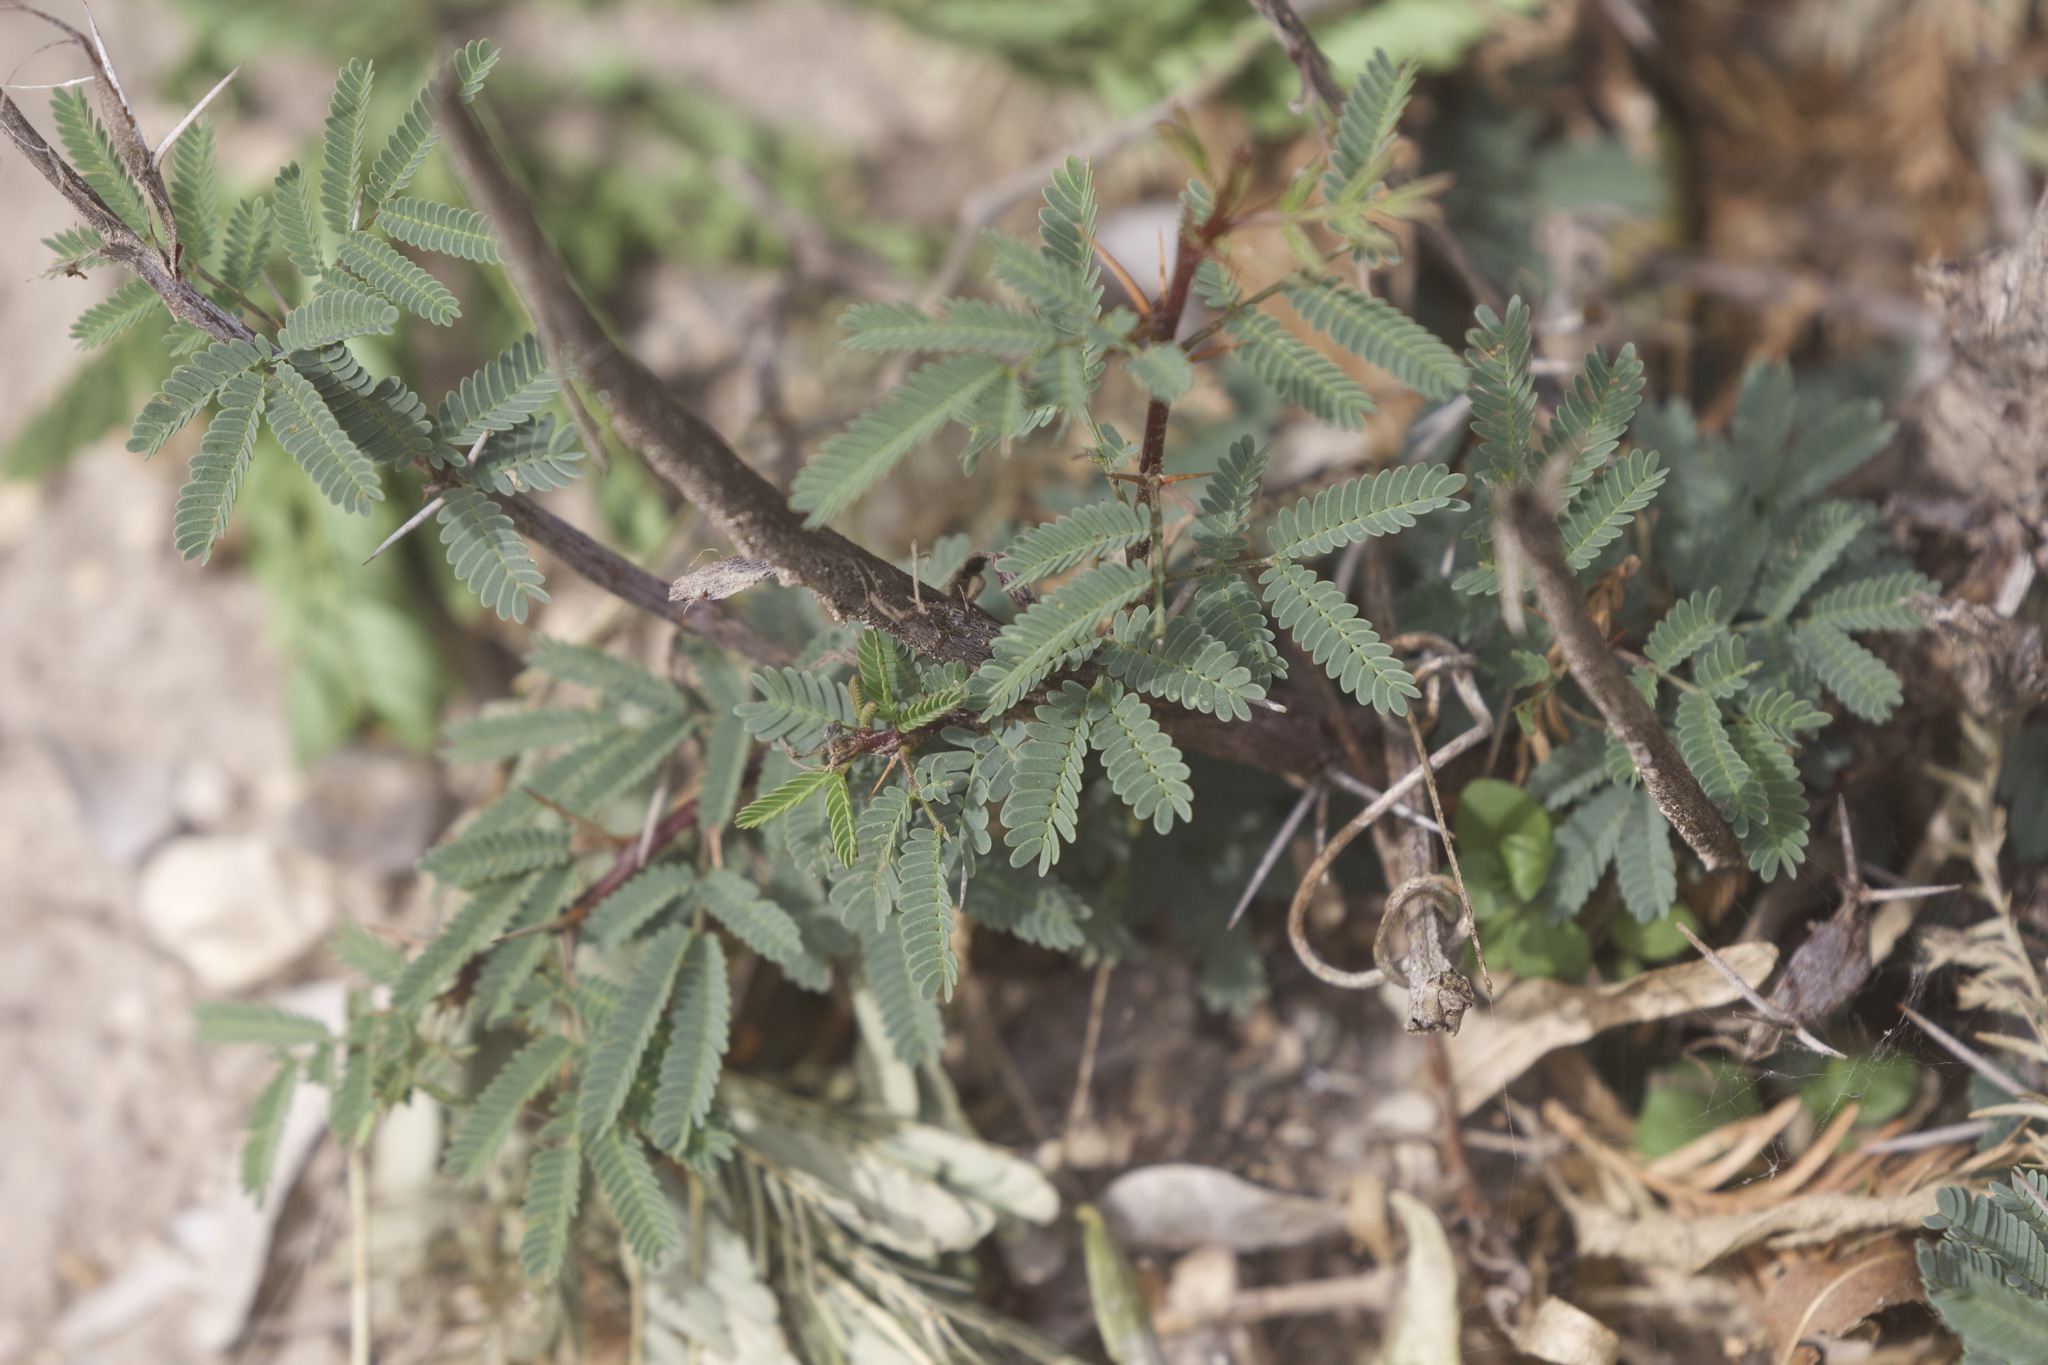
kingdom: Plantae
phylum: Tracheophyta
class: Magnoliopsida
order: Fabales
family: Fabaceae
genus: Vachellia
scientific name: Vachellia farnesiana
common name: Sweet acacia
